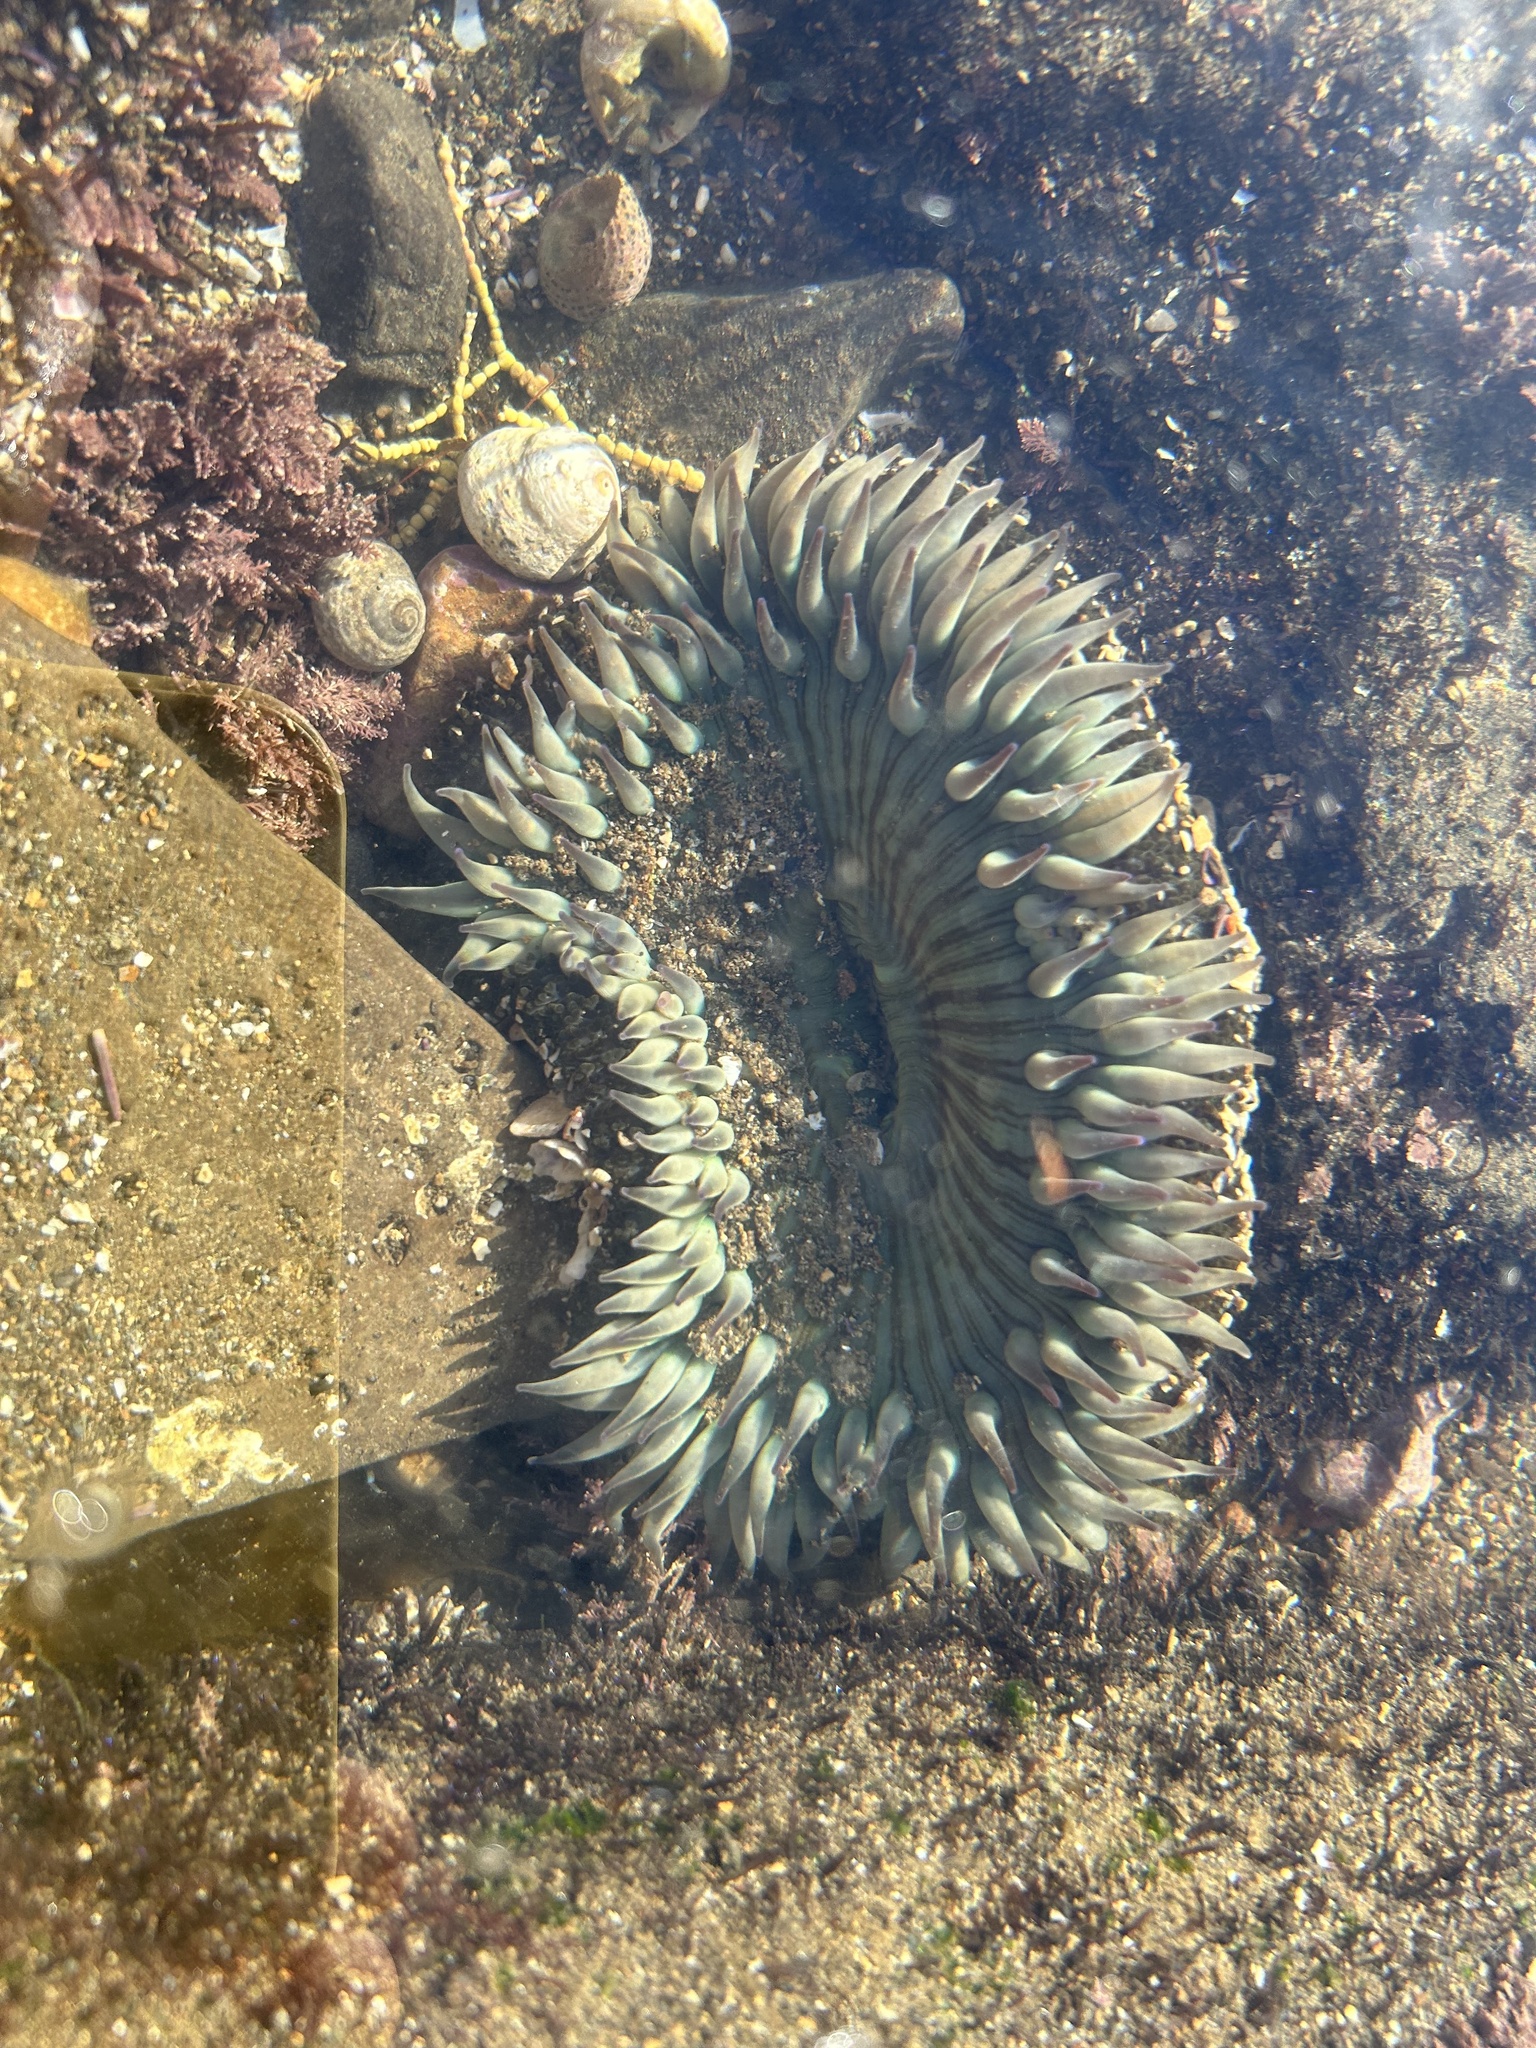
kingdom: Animalia
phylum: Cnidaria
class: Anthozoa
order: Actiniaria
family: Actiniidae
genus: Anthopleura
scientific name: Anthopleura sola
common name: Sun anemone
